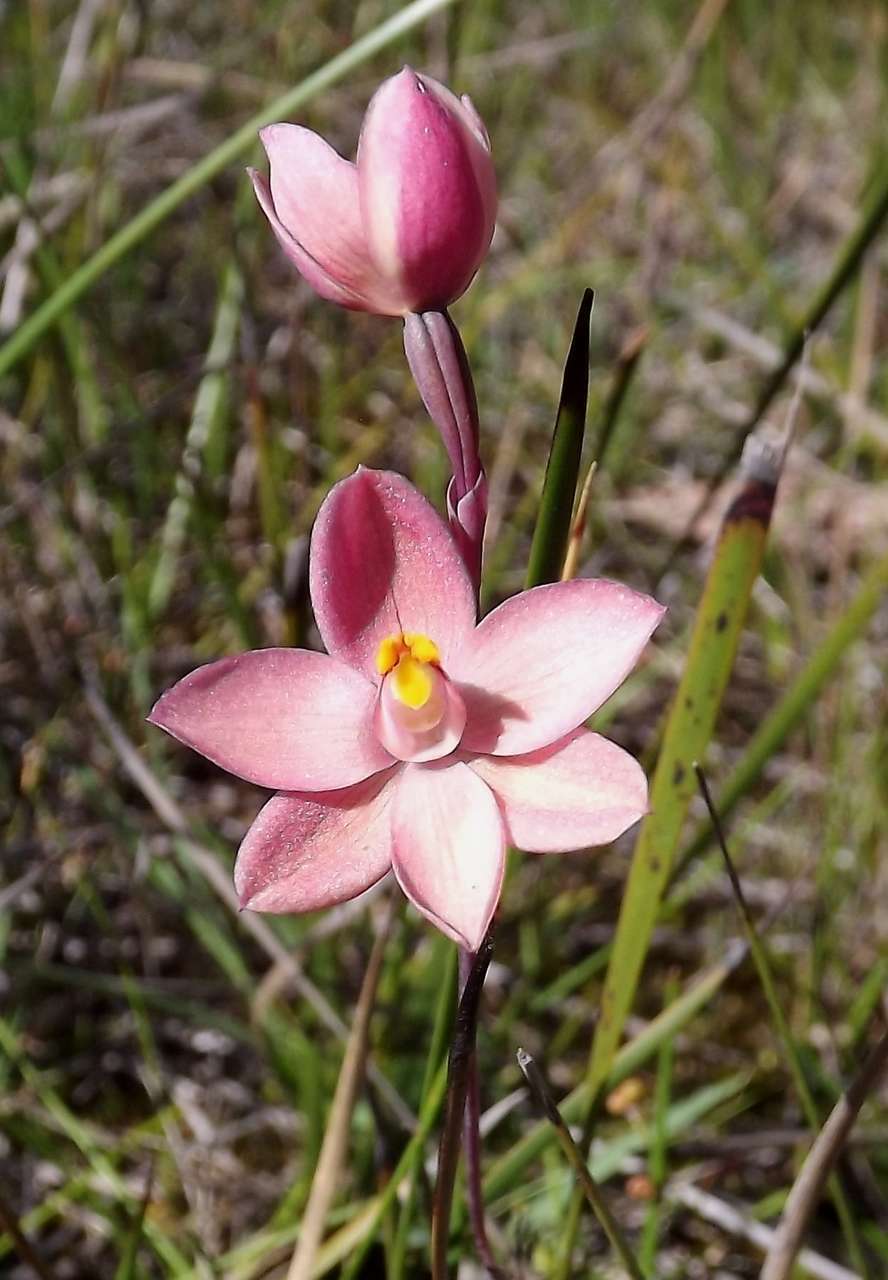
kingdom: Plantae
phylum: Tracheophyta
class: Liliopsida
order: Asparagales
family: Orchidaceae
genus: Thelymitra
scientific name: Thelymitra rubra
